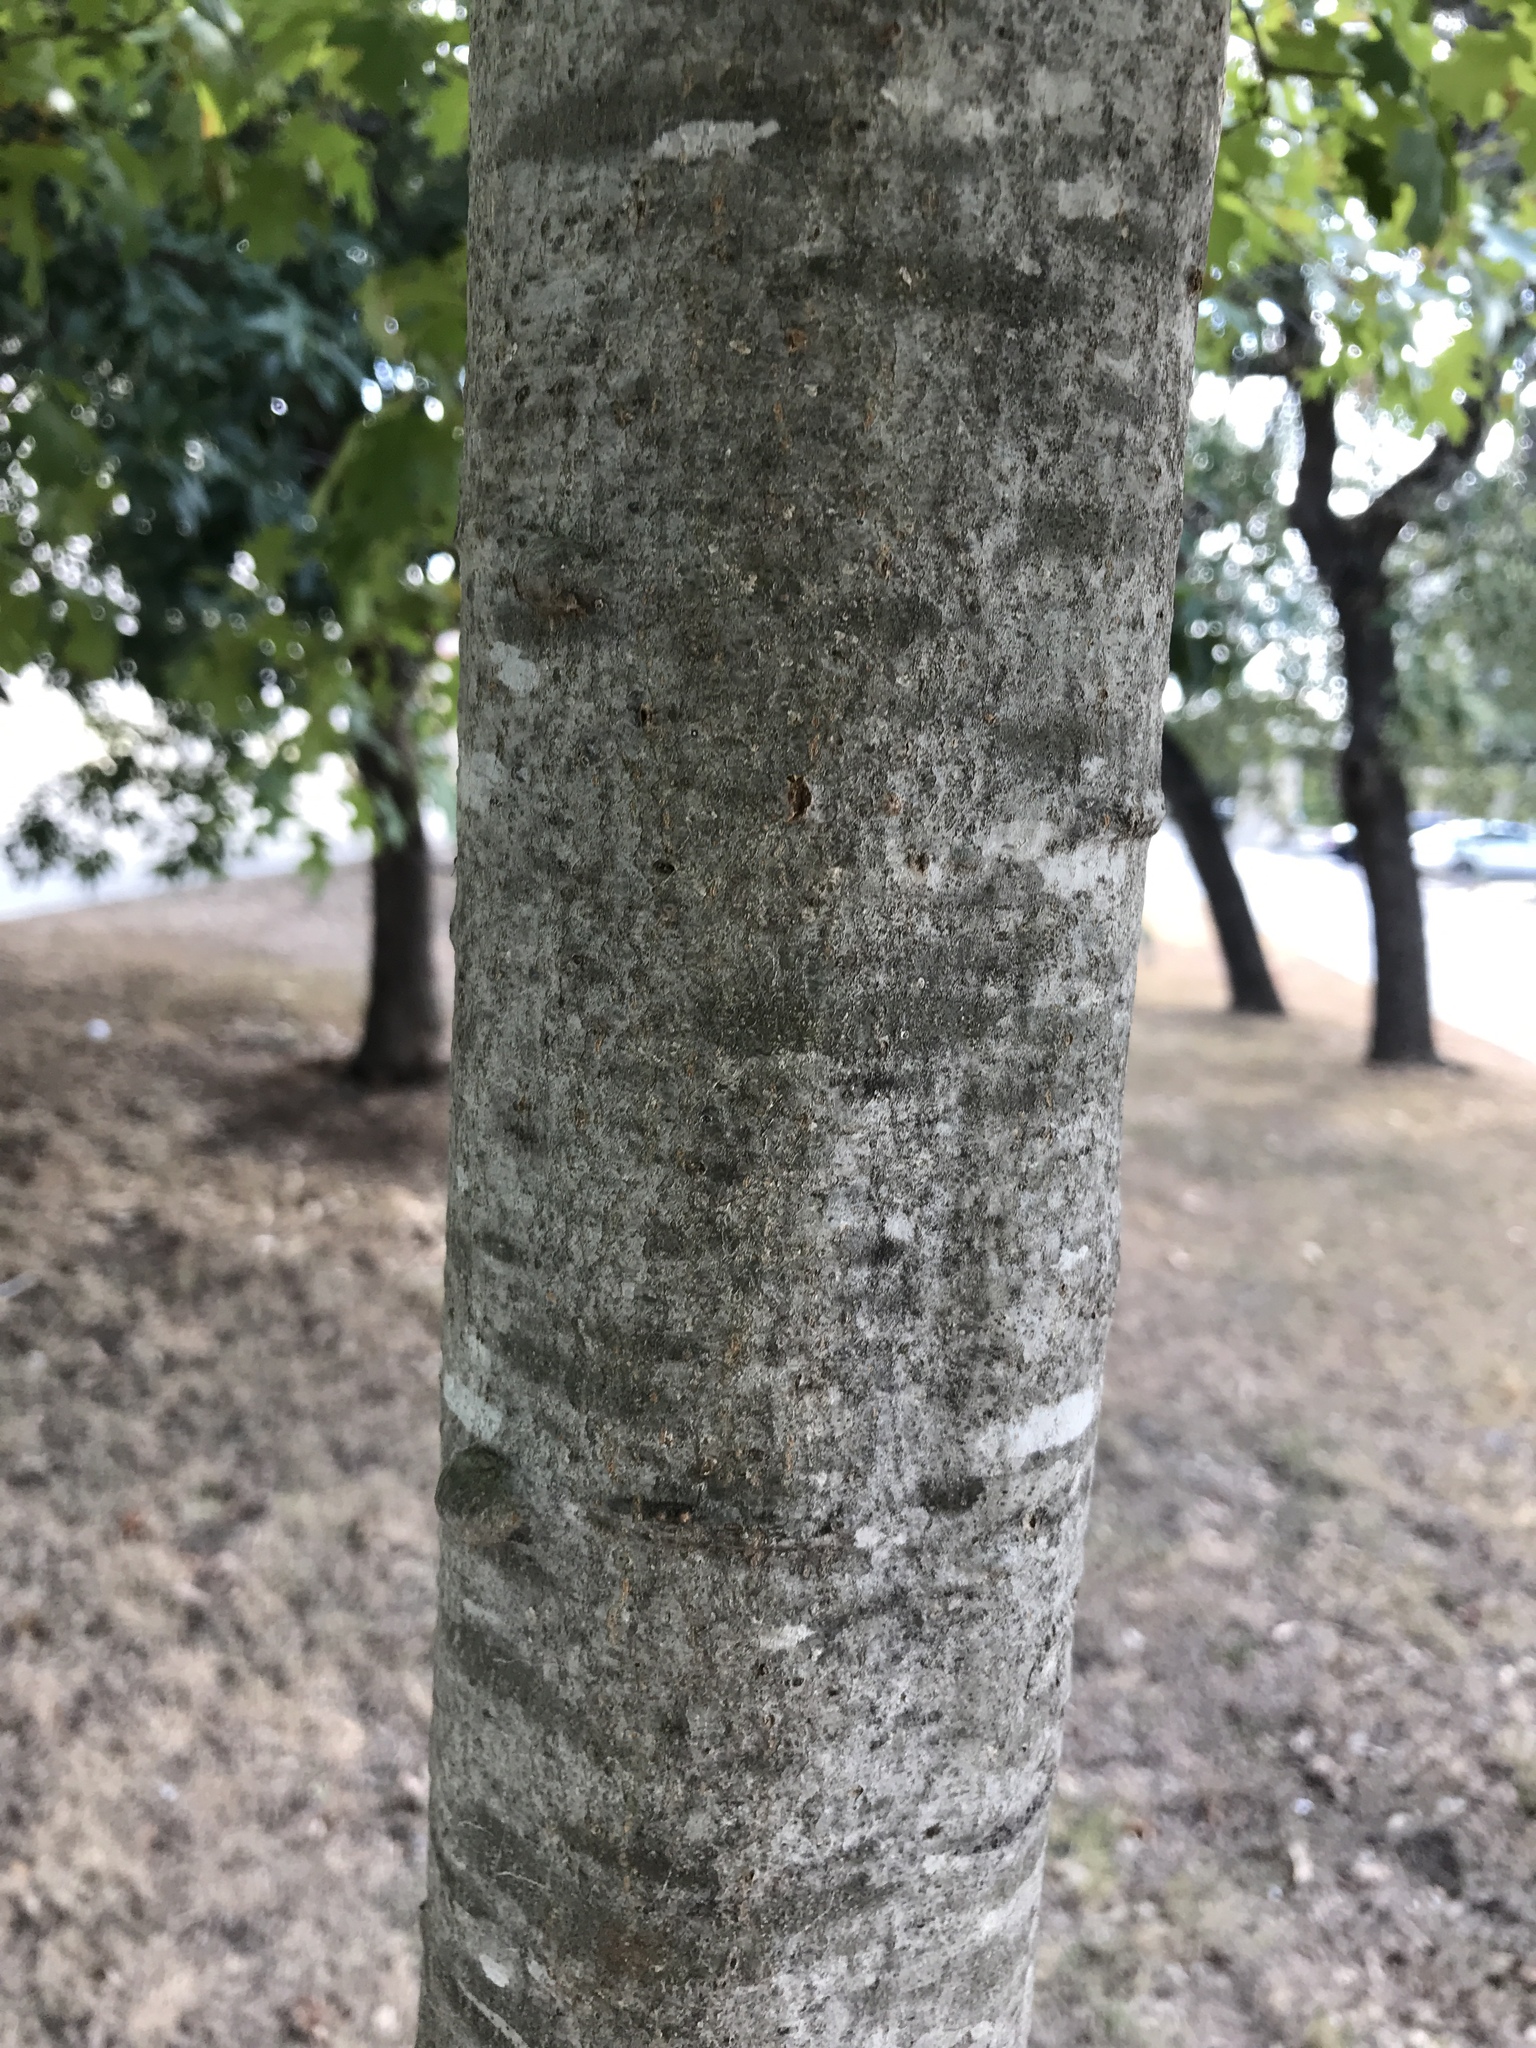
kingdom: Plantae
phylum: Tracheophyta
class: Magnoliopsida
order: Fagales
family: Fagaceae
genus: Quercus
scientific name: Quercus buckleyi
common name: Buckley oak
